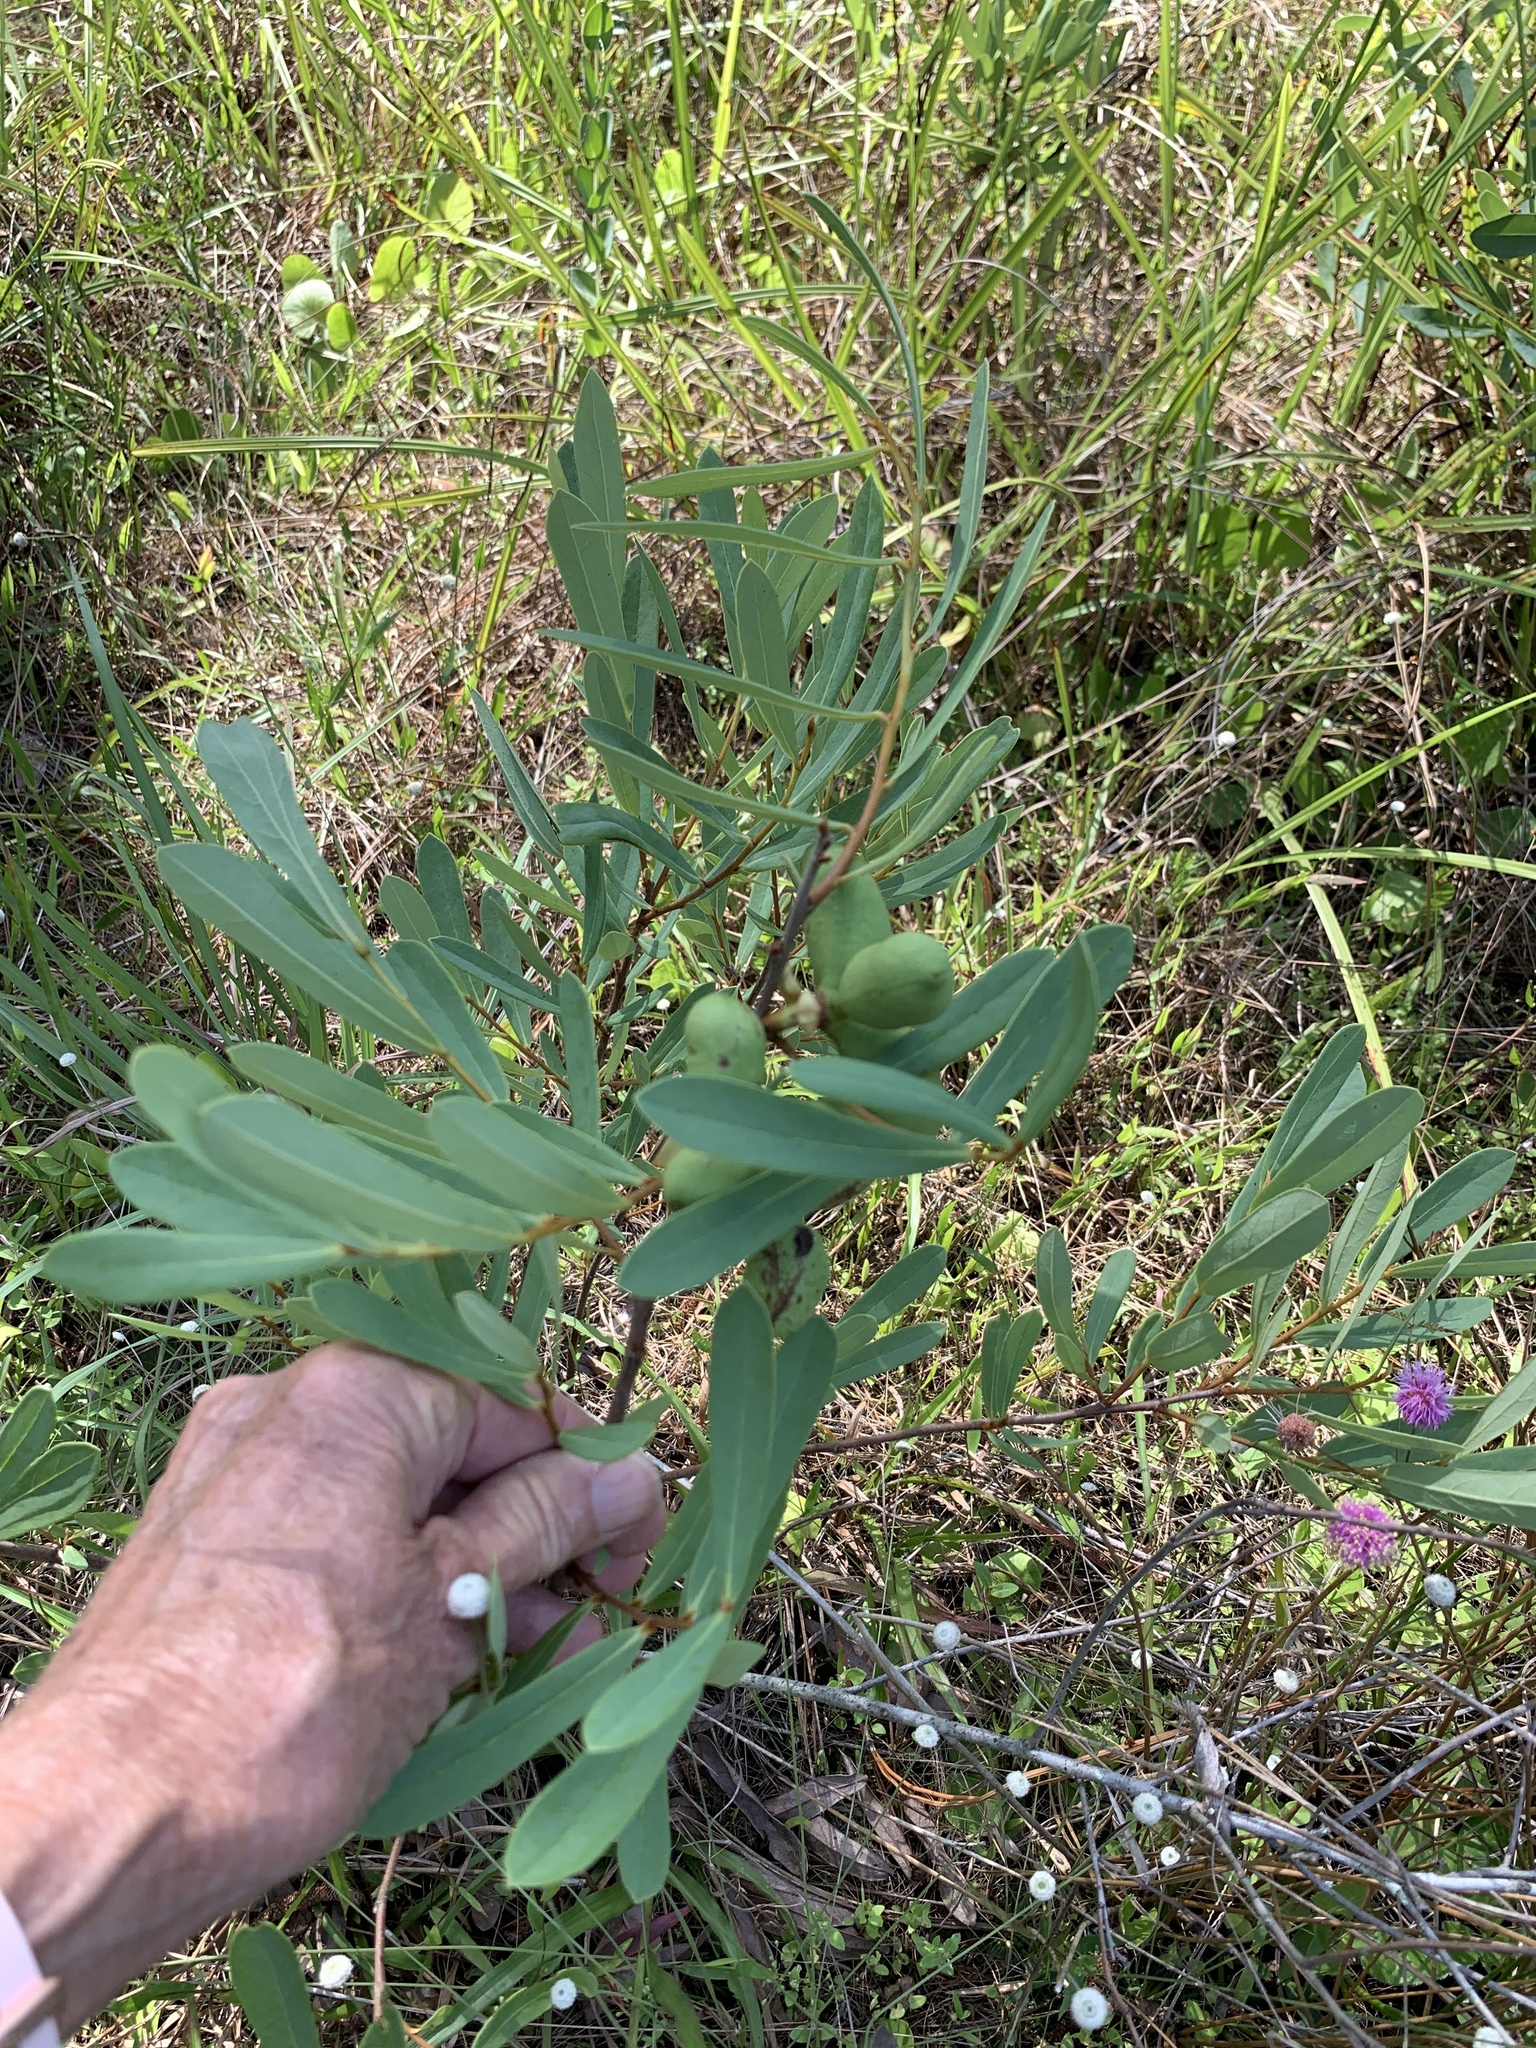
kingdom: Plantae
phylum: Tracheophyta
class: Magnoliopsida
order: Magnoliales
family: Annonaceae
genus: Asimina
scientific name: Asimina reticulata
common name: Flag pawpaw
